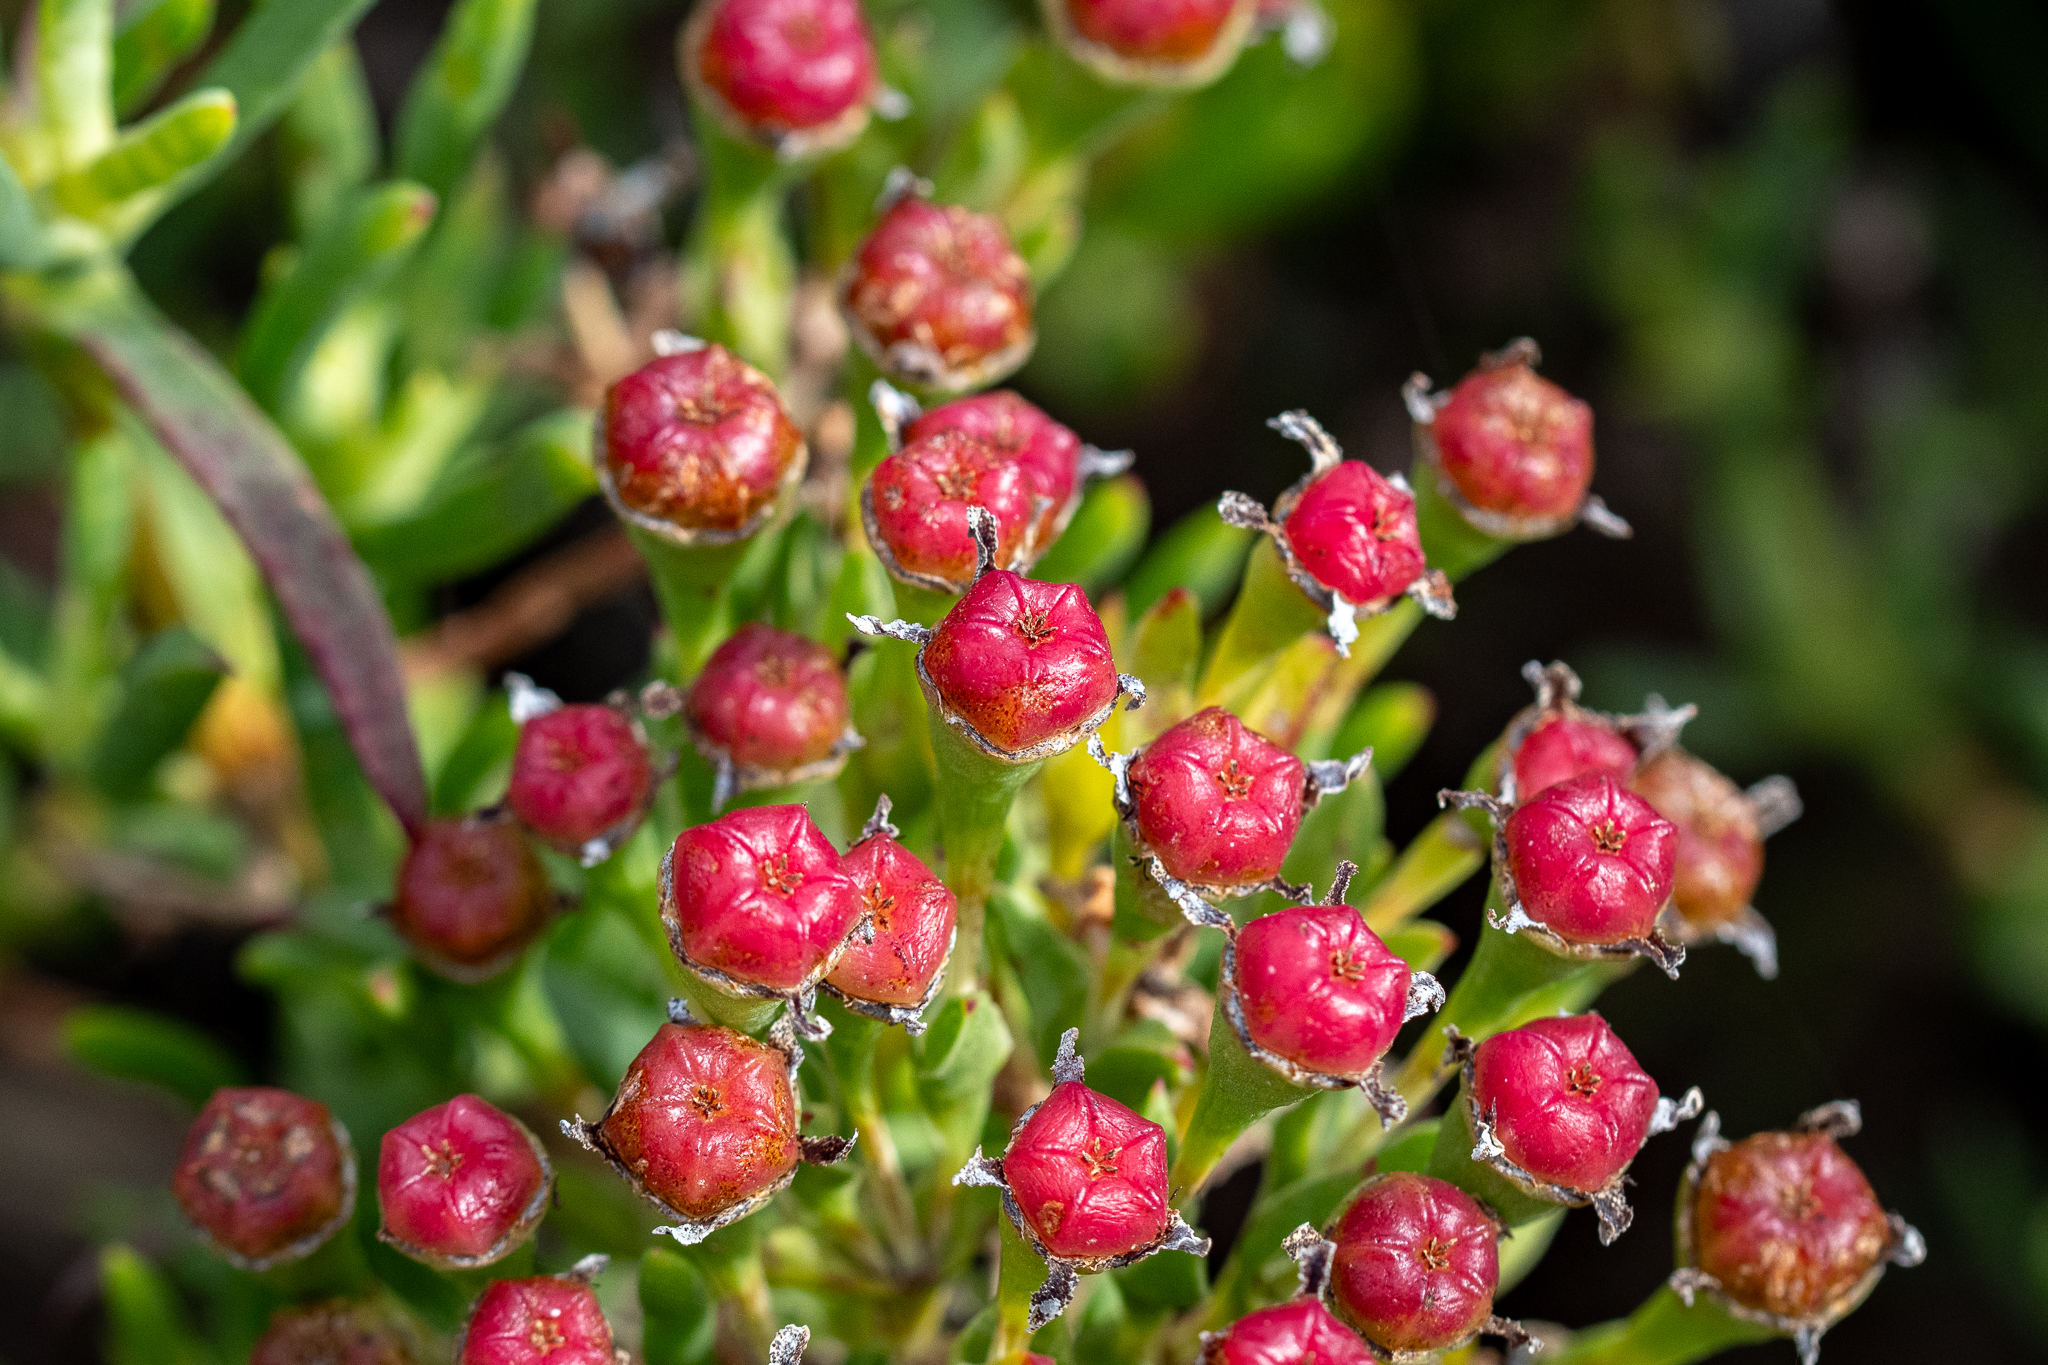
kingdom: Plantae
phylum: Tracheophyta
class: Magnoliopsida
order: Caryophyllales
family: Aizoaceae
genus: Ruschia
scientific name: Ruschia macowanii
